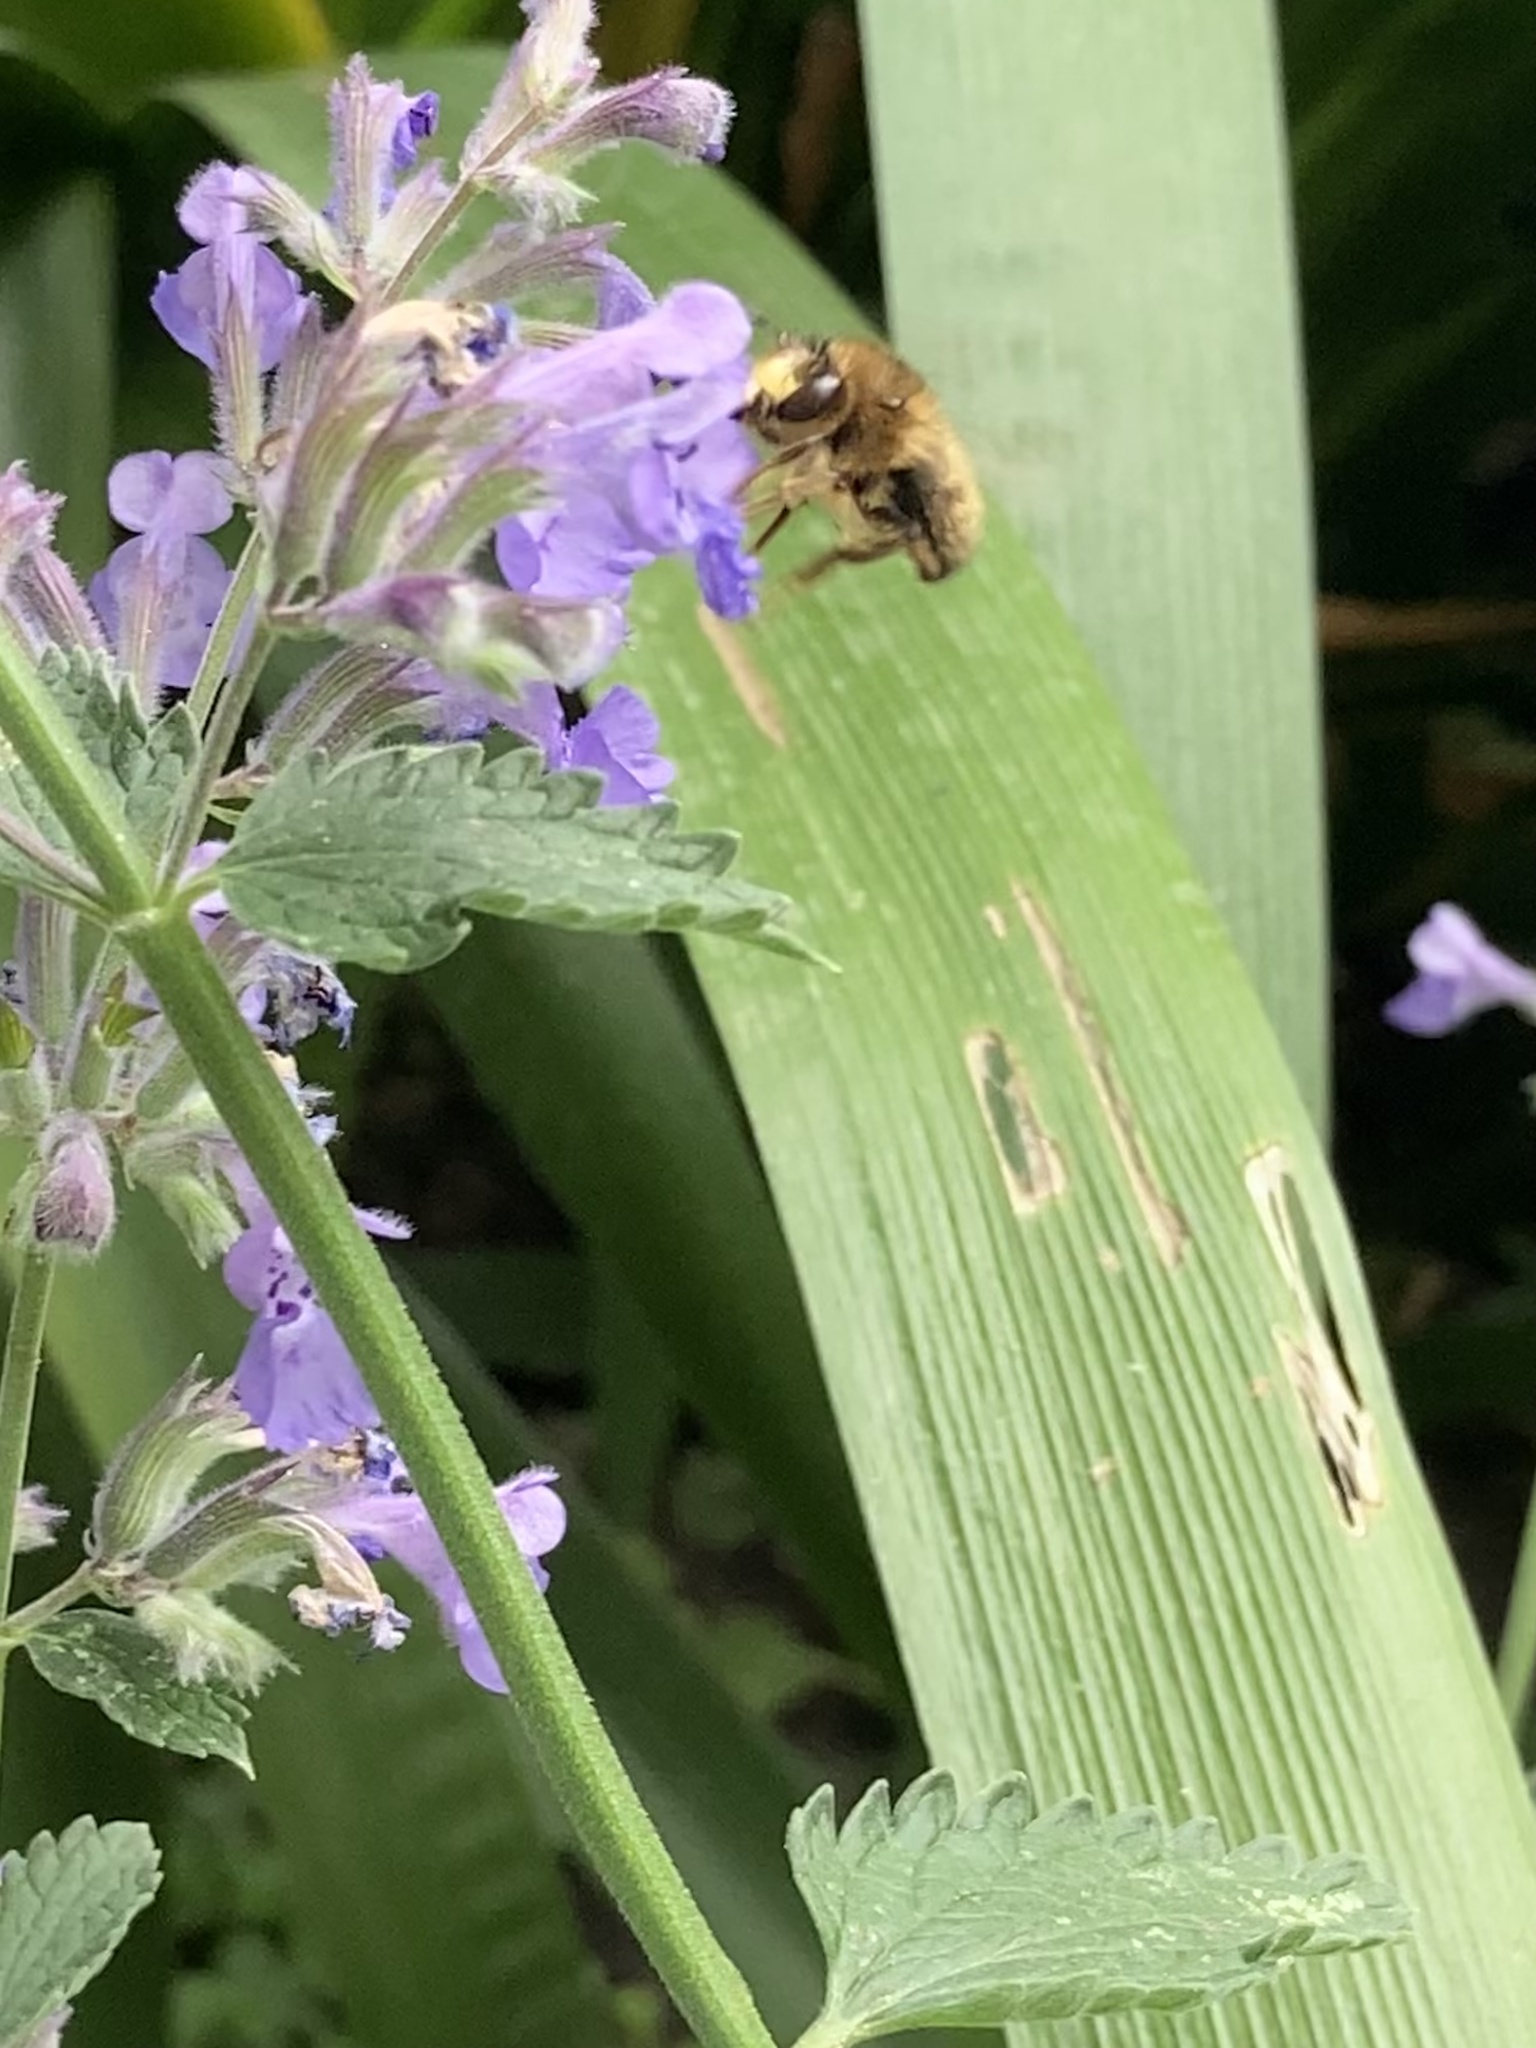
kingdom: Animalia
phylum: Arthropoda
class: Insecta
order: Hymenoptera
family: Apidae
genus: Anthophora
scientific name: Anthophora furcata
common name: Fork-tailed flower bee
